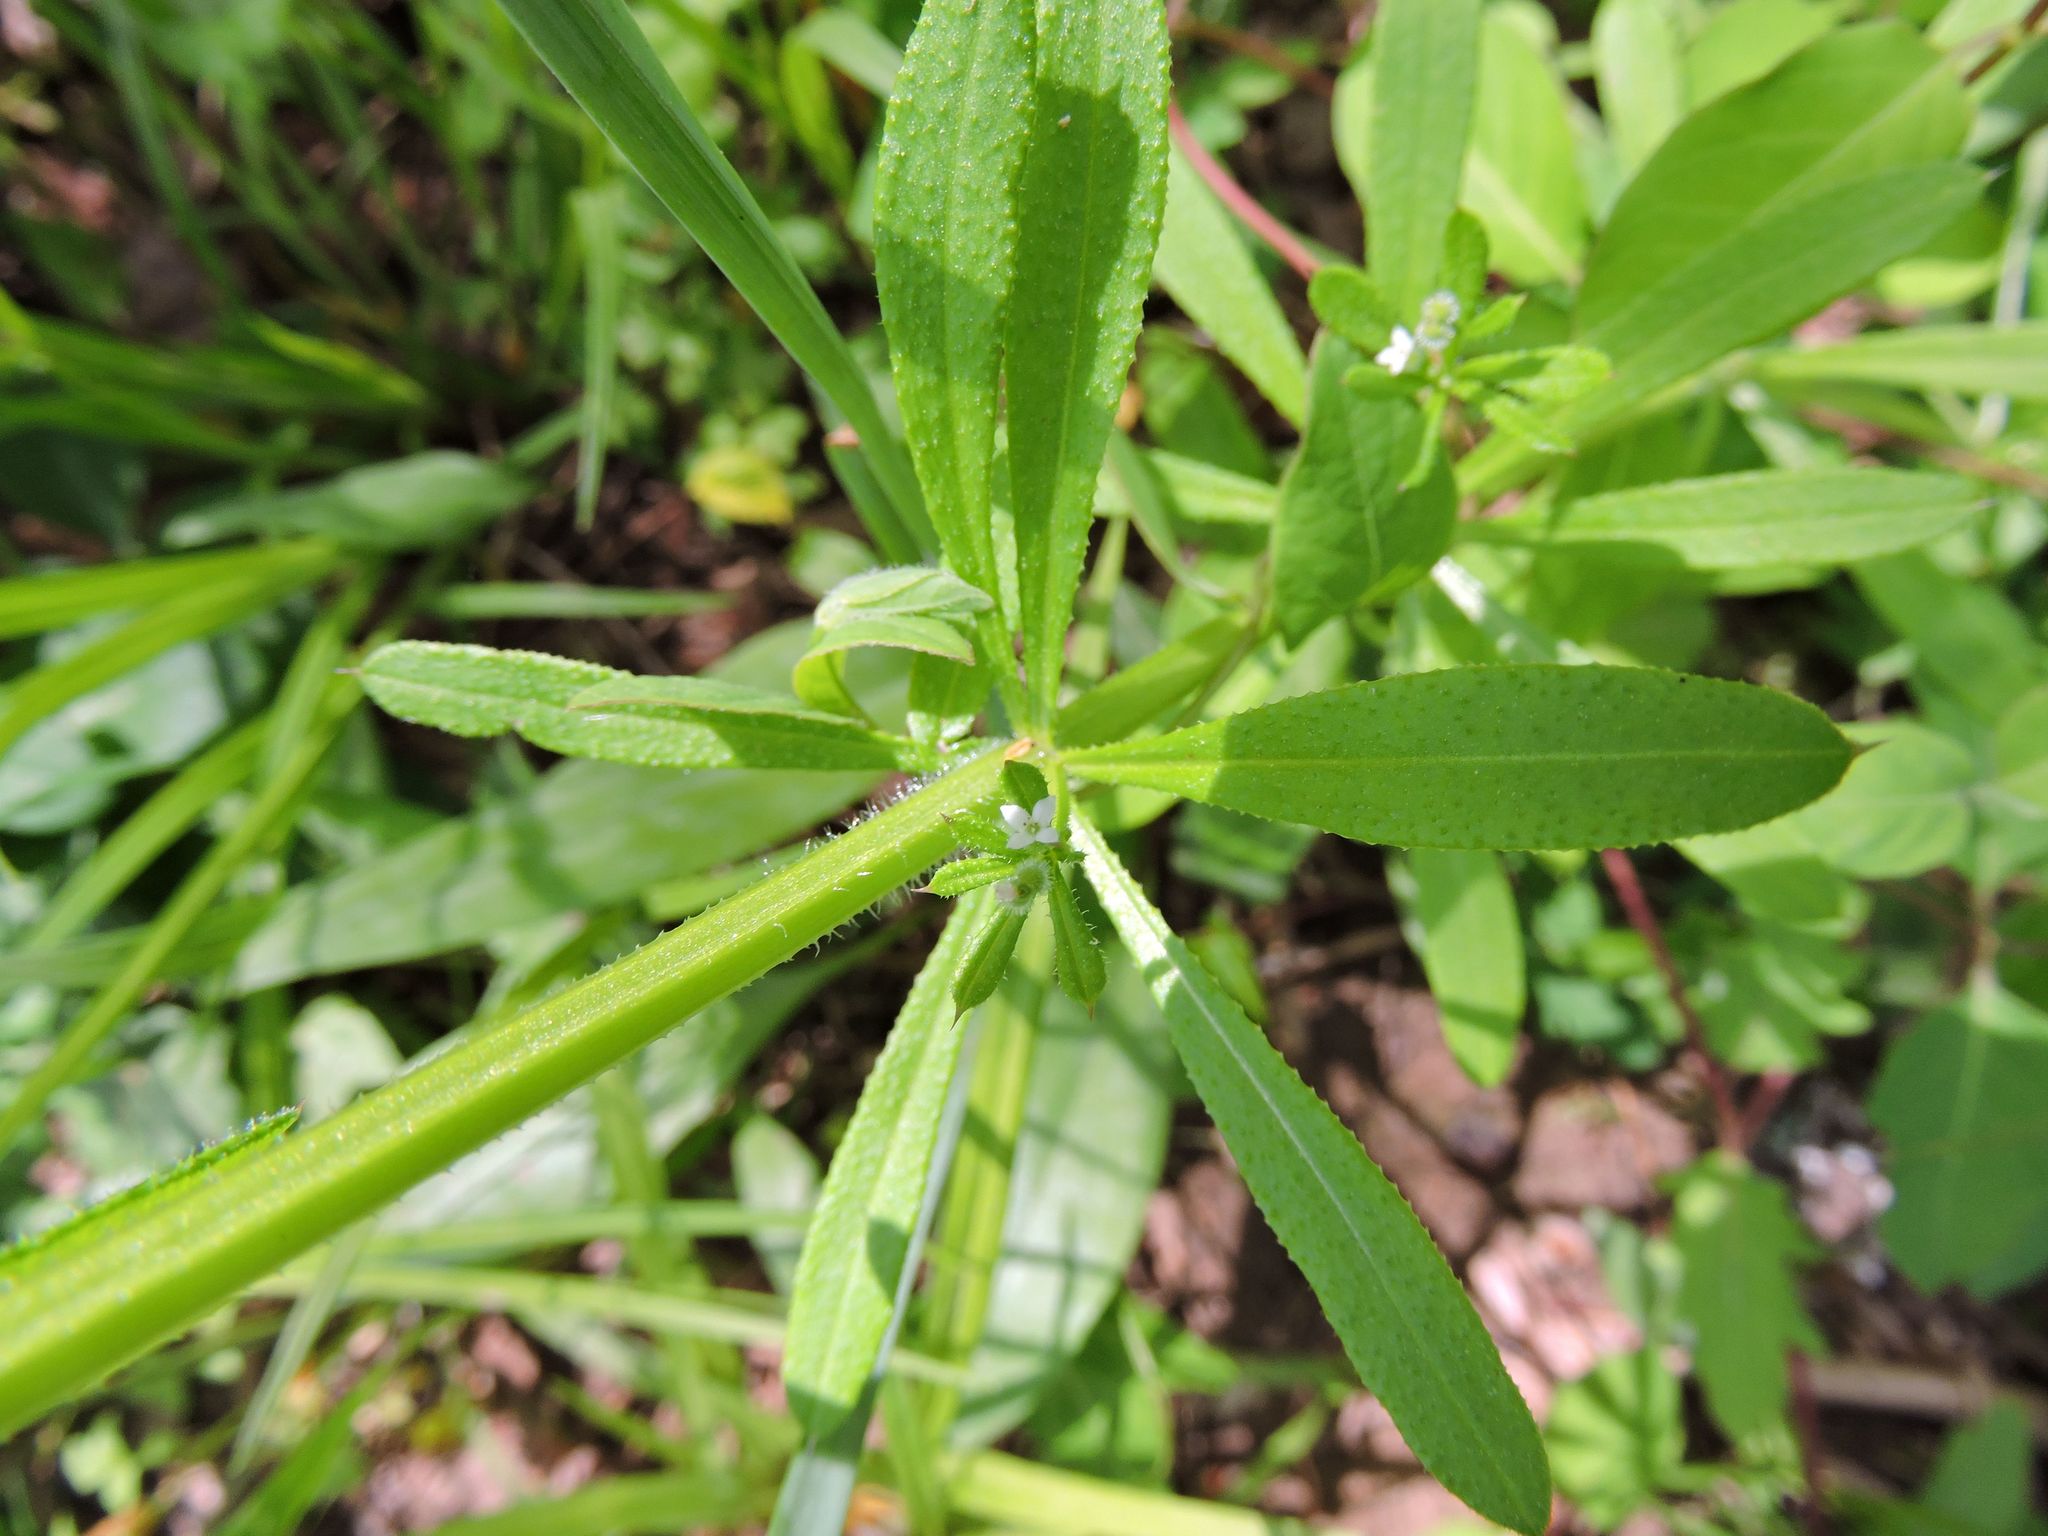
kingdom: Plantae
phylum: Tracheophyta
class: Magnoliopsida
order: Gentianales
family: Rubiaceae
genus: Galium
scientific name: Galium aparine
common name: Cleavers
